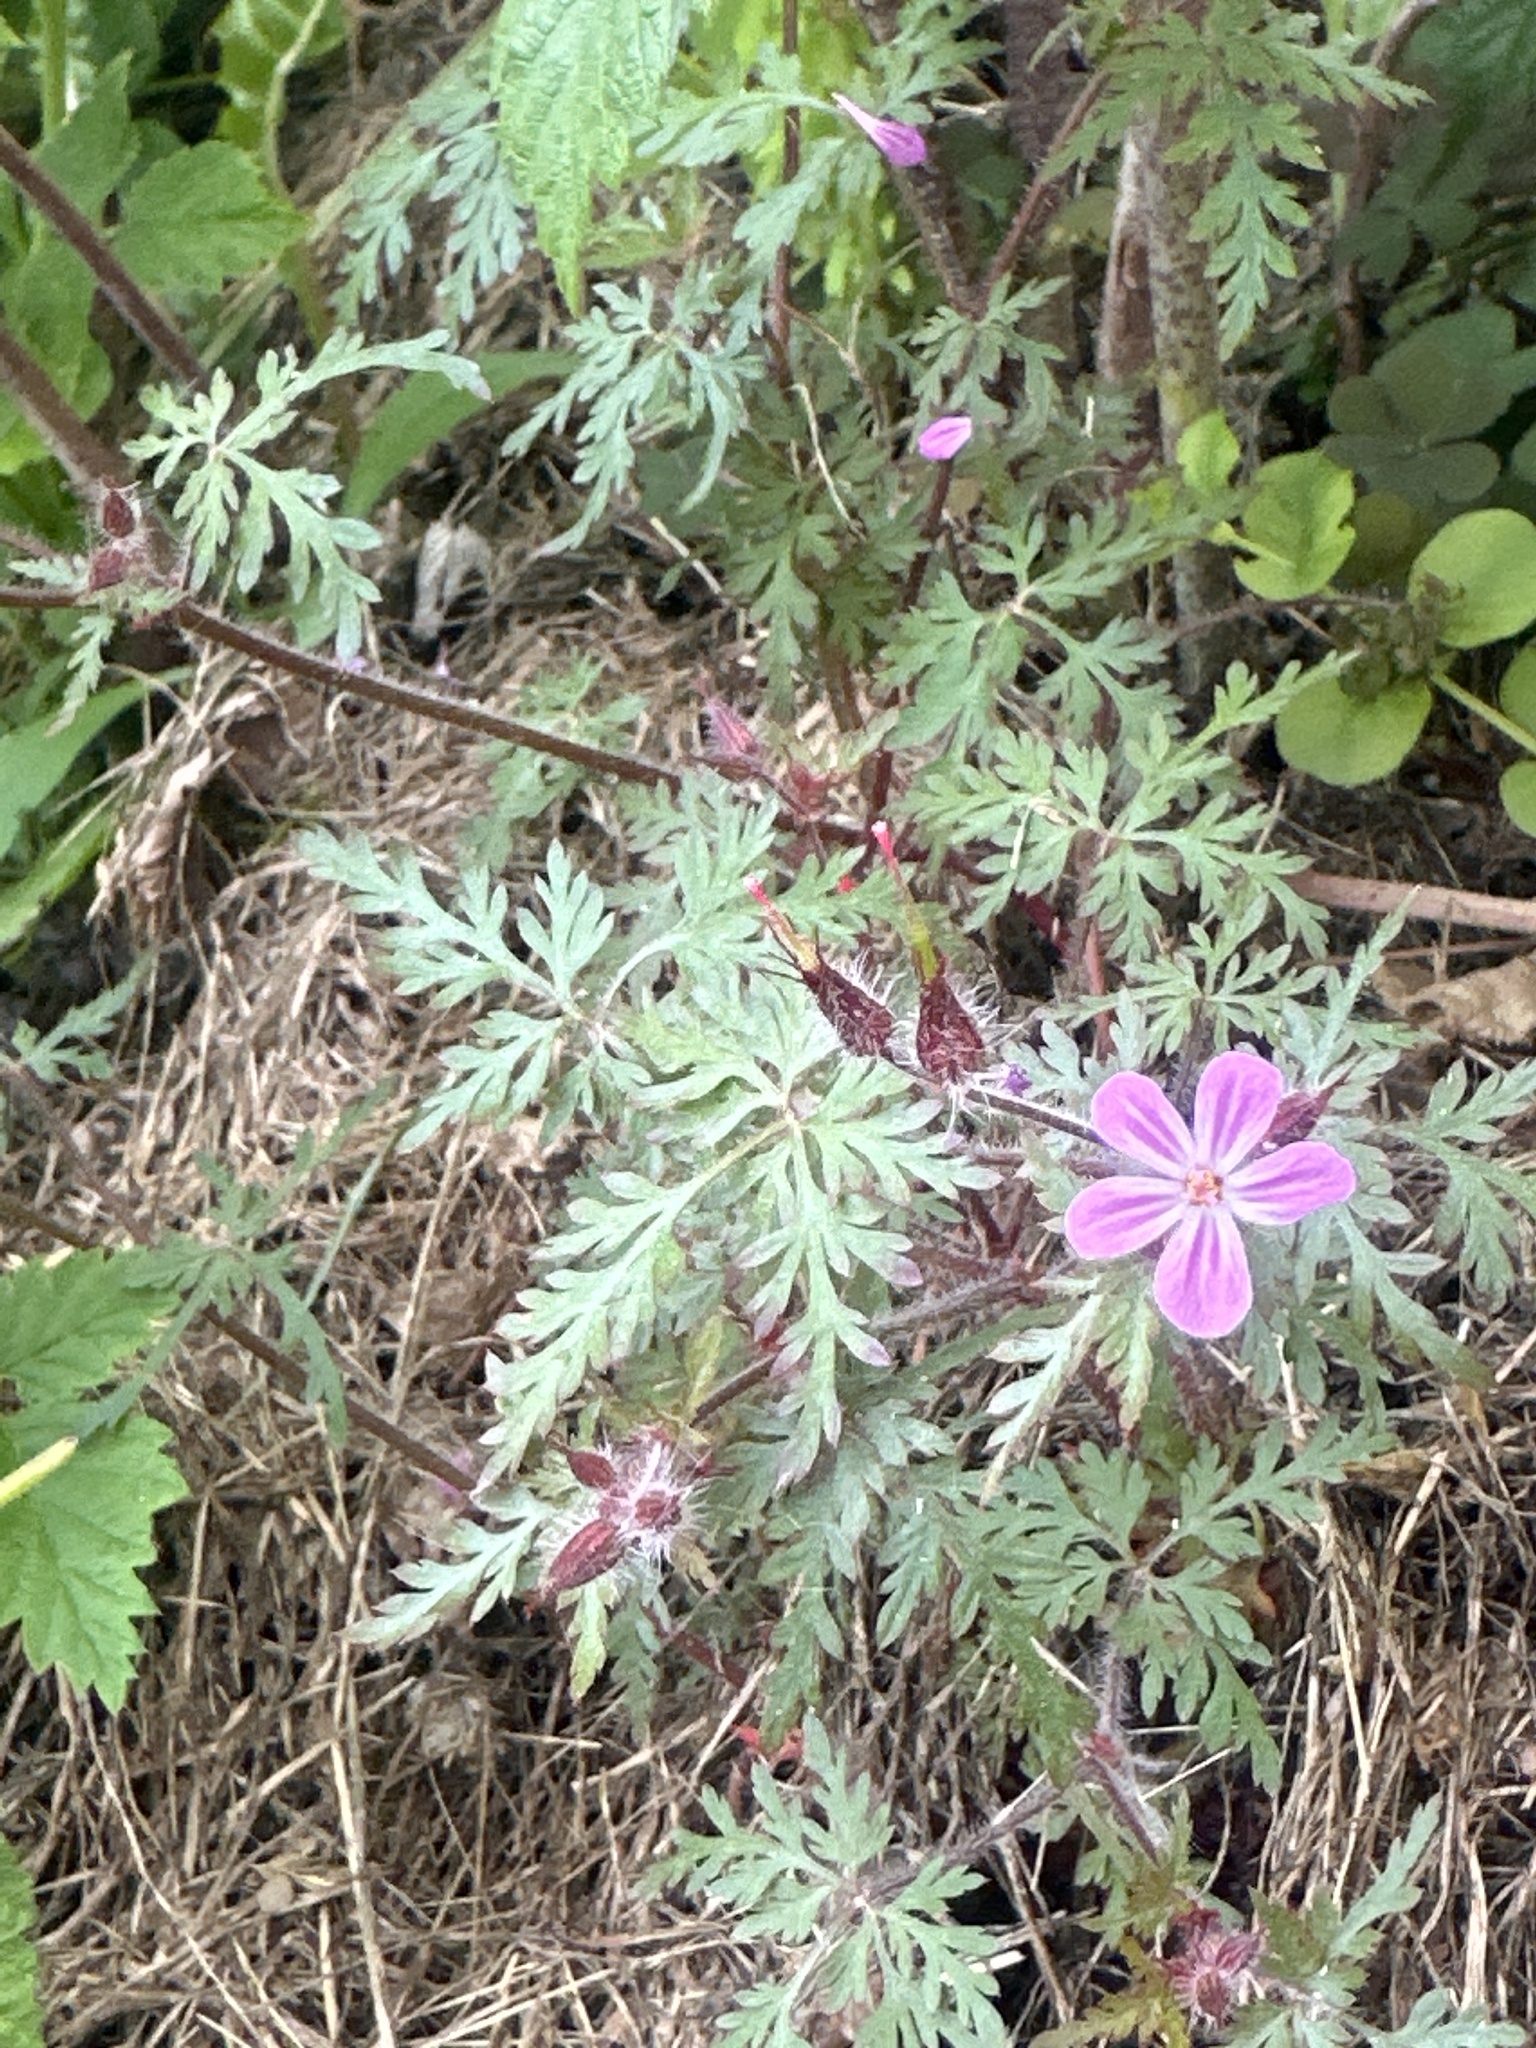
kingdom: Plantae
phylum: Tracheophyta
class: Magnoliopsida
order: Geraniales
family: Geraniaceae
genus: Geranium
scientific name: Geranium robertianum
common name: Herb-robert
